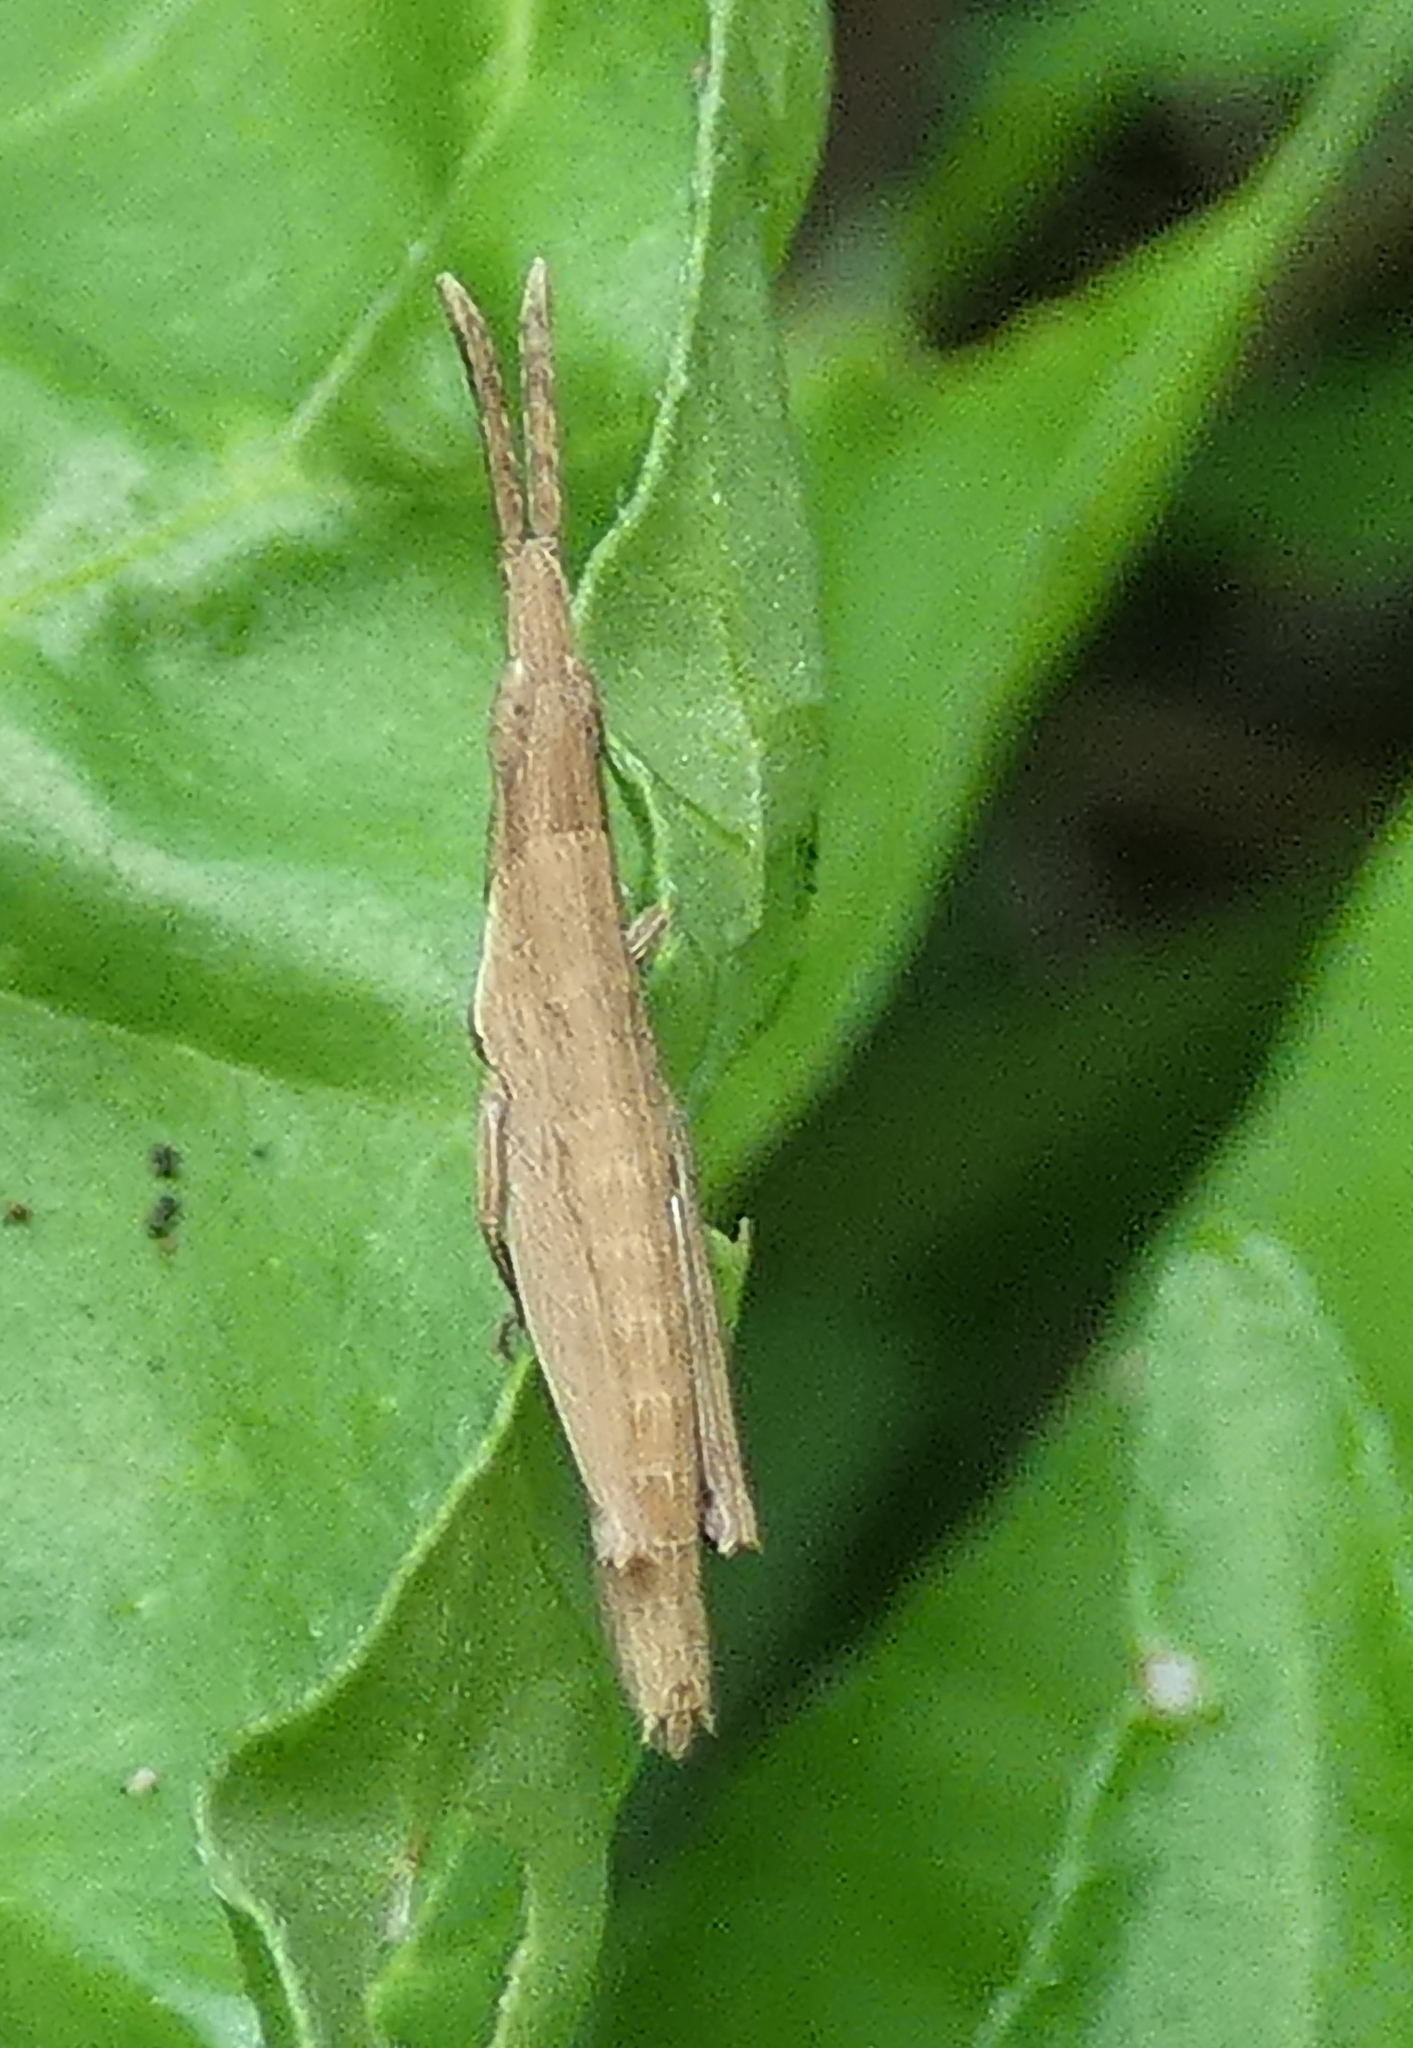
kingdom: Animalia
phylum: Arthropoda
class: Insecta
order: Orthoptera
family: Pyrgomorphidae
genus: Algete
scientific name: Algete brunneri
